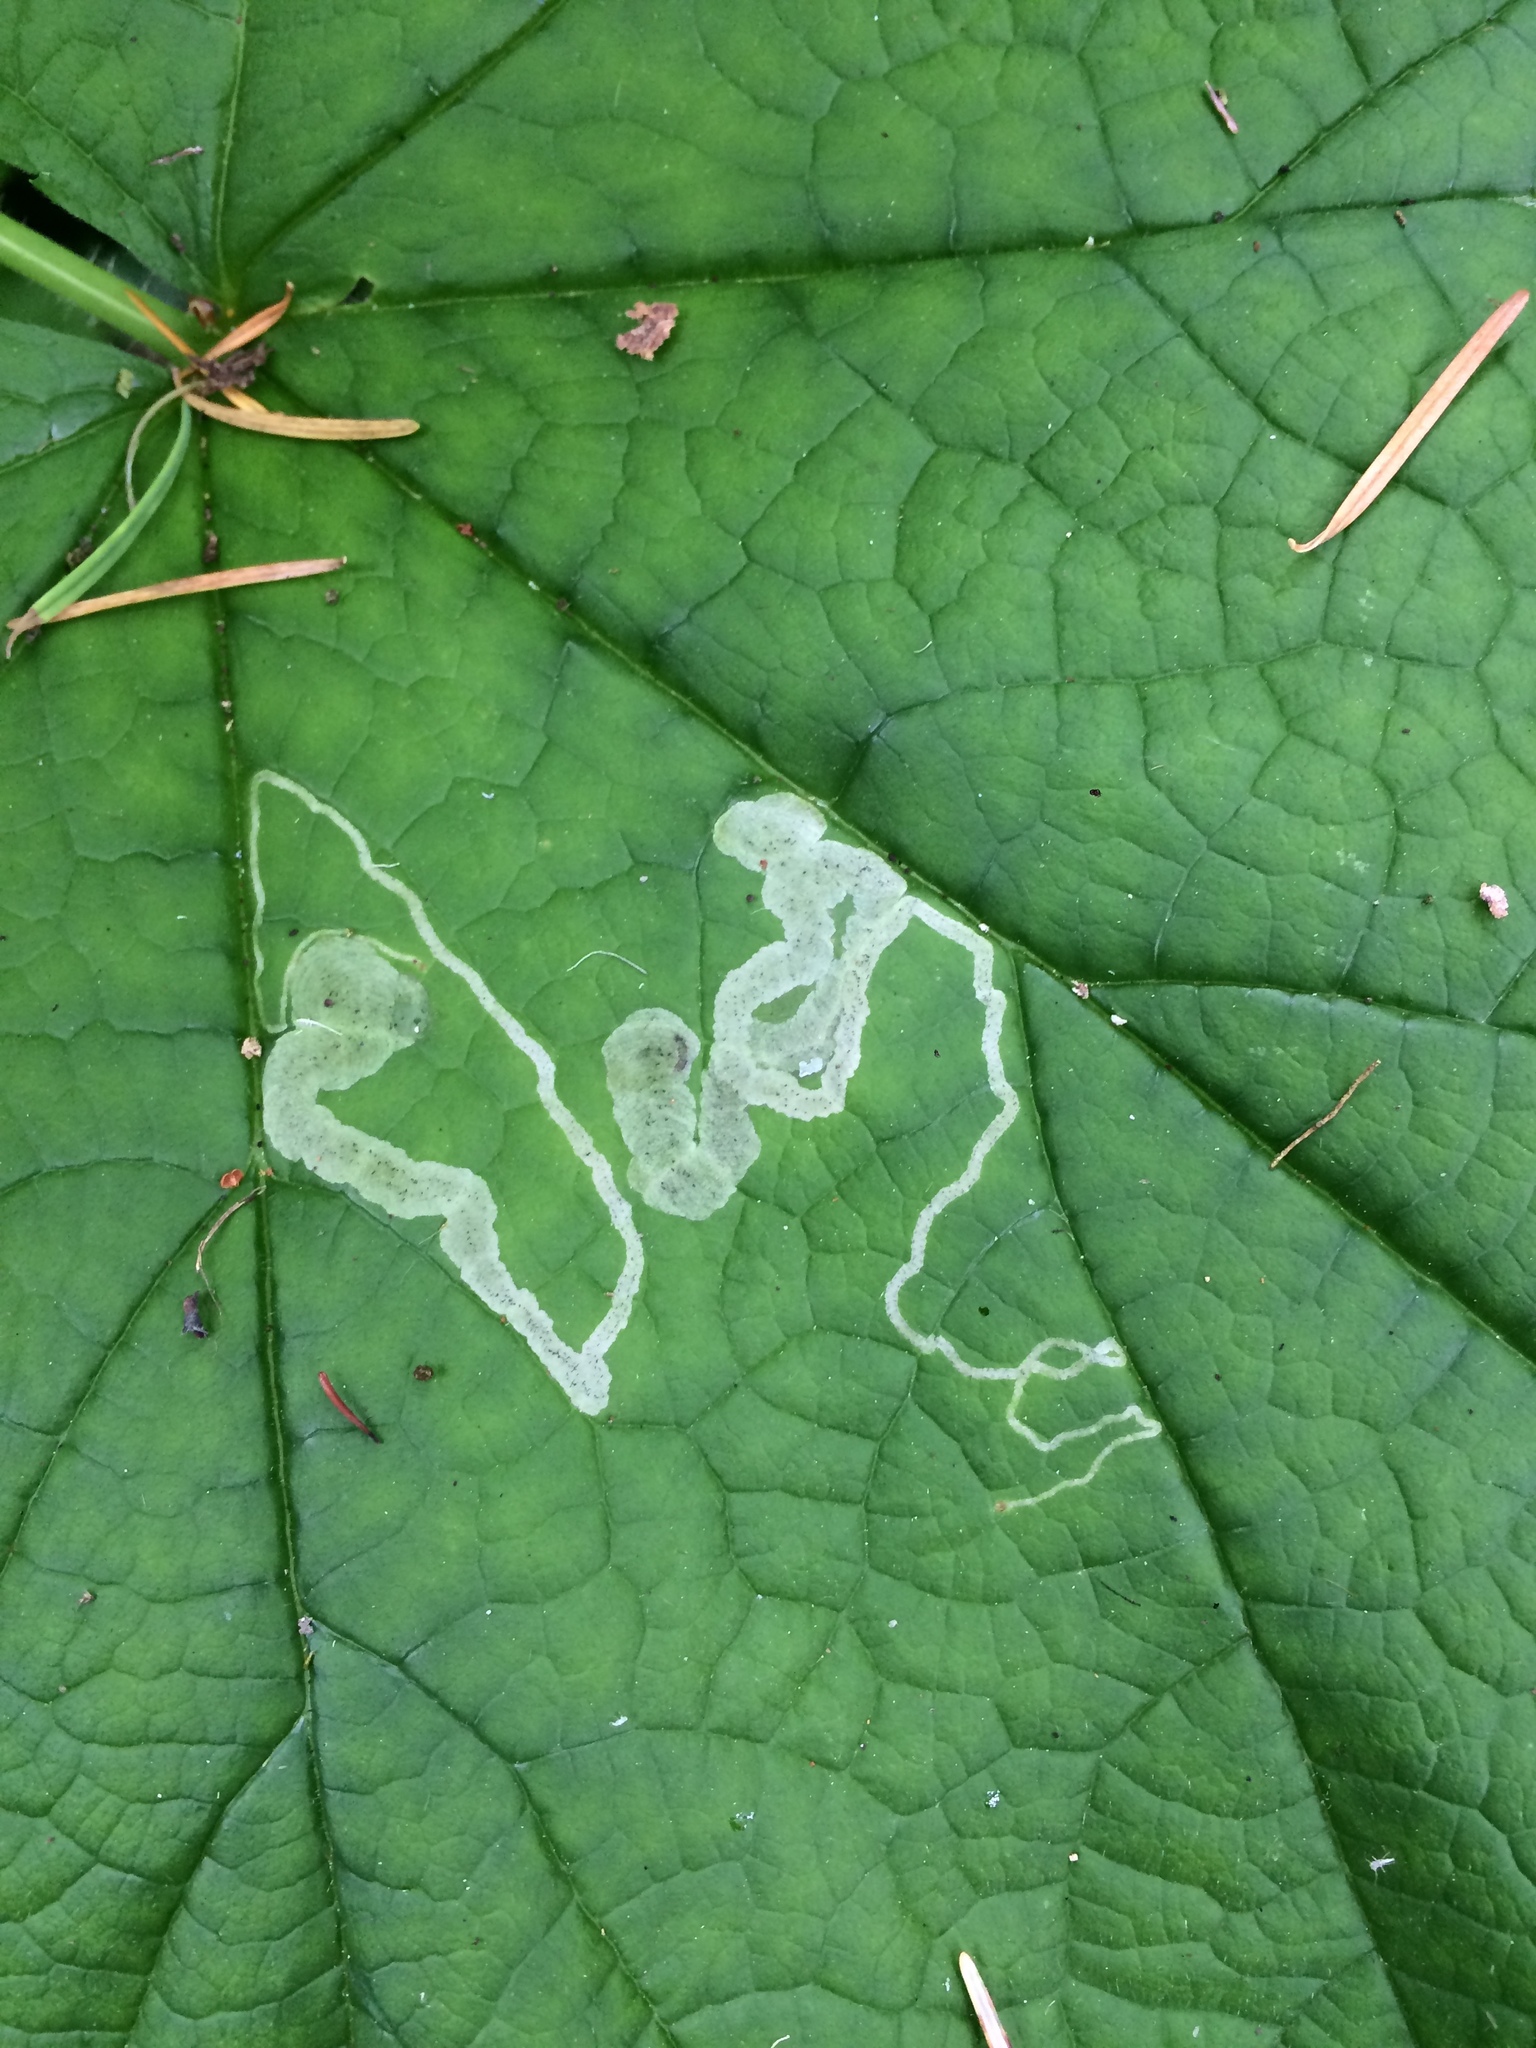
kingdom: Animalia
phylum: Arthropoda
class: Insecta
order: Diptera
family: Agromyzidae
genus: Agromyza
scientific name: Agromyza vockerothi
